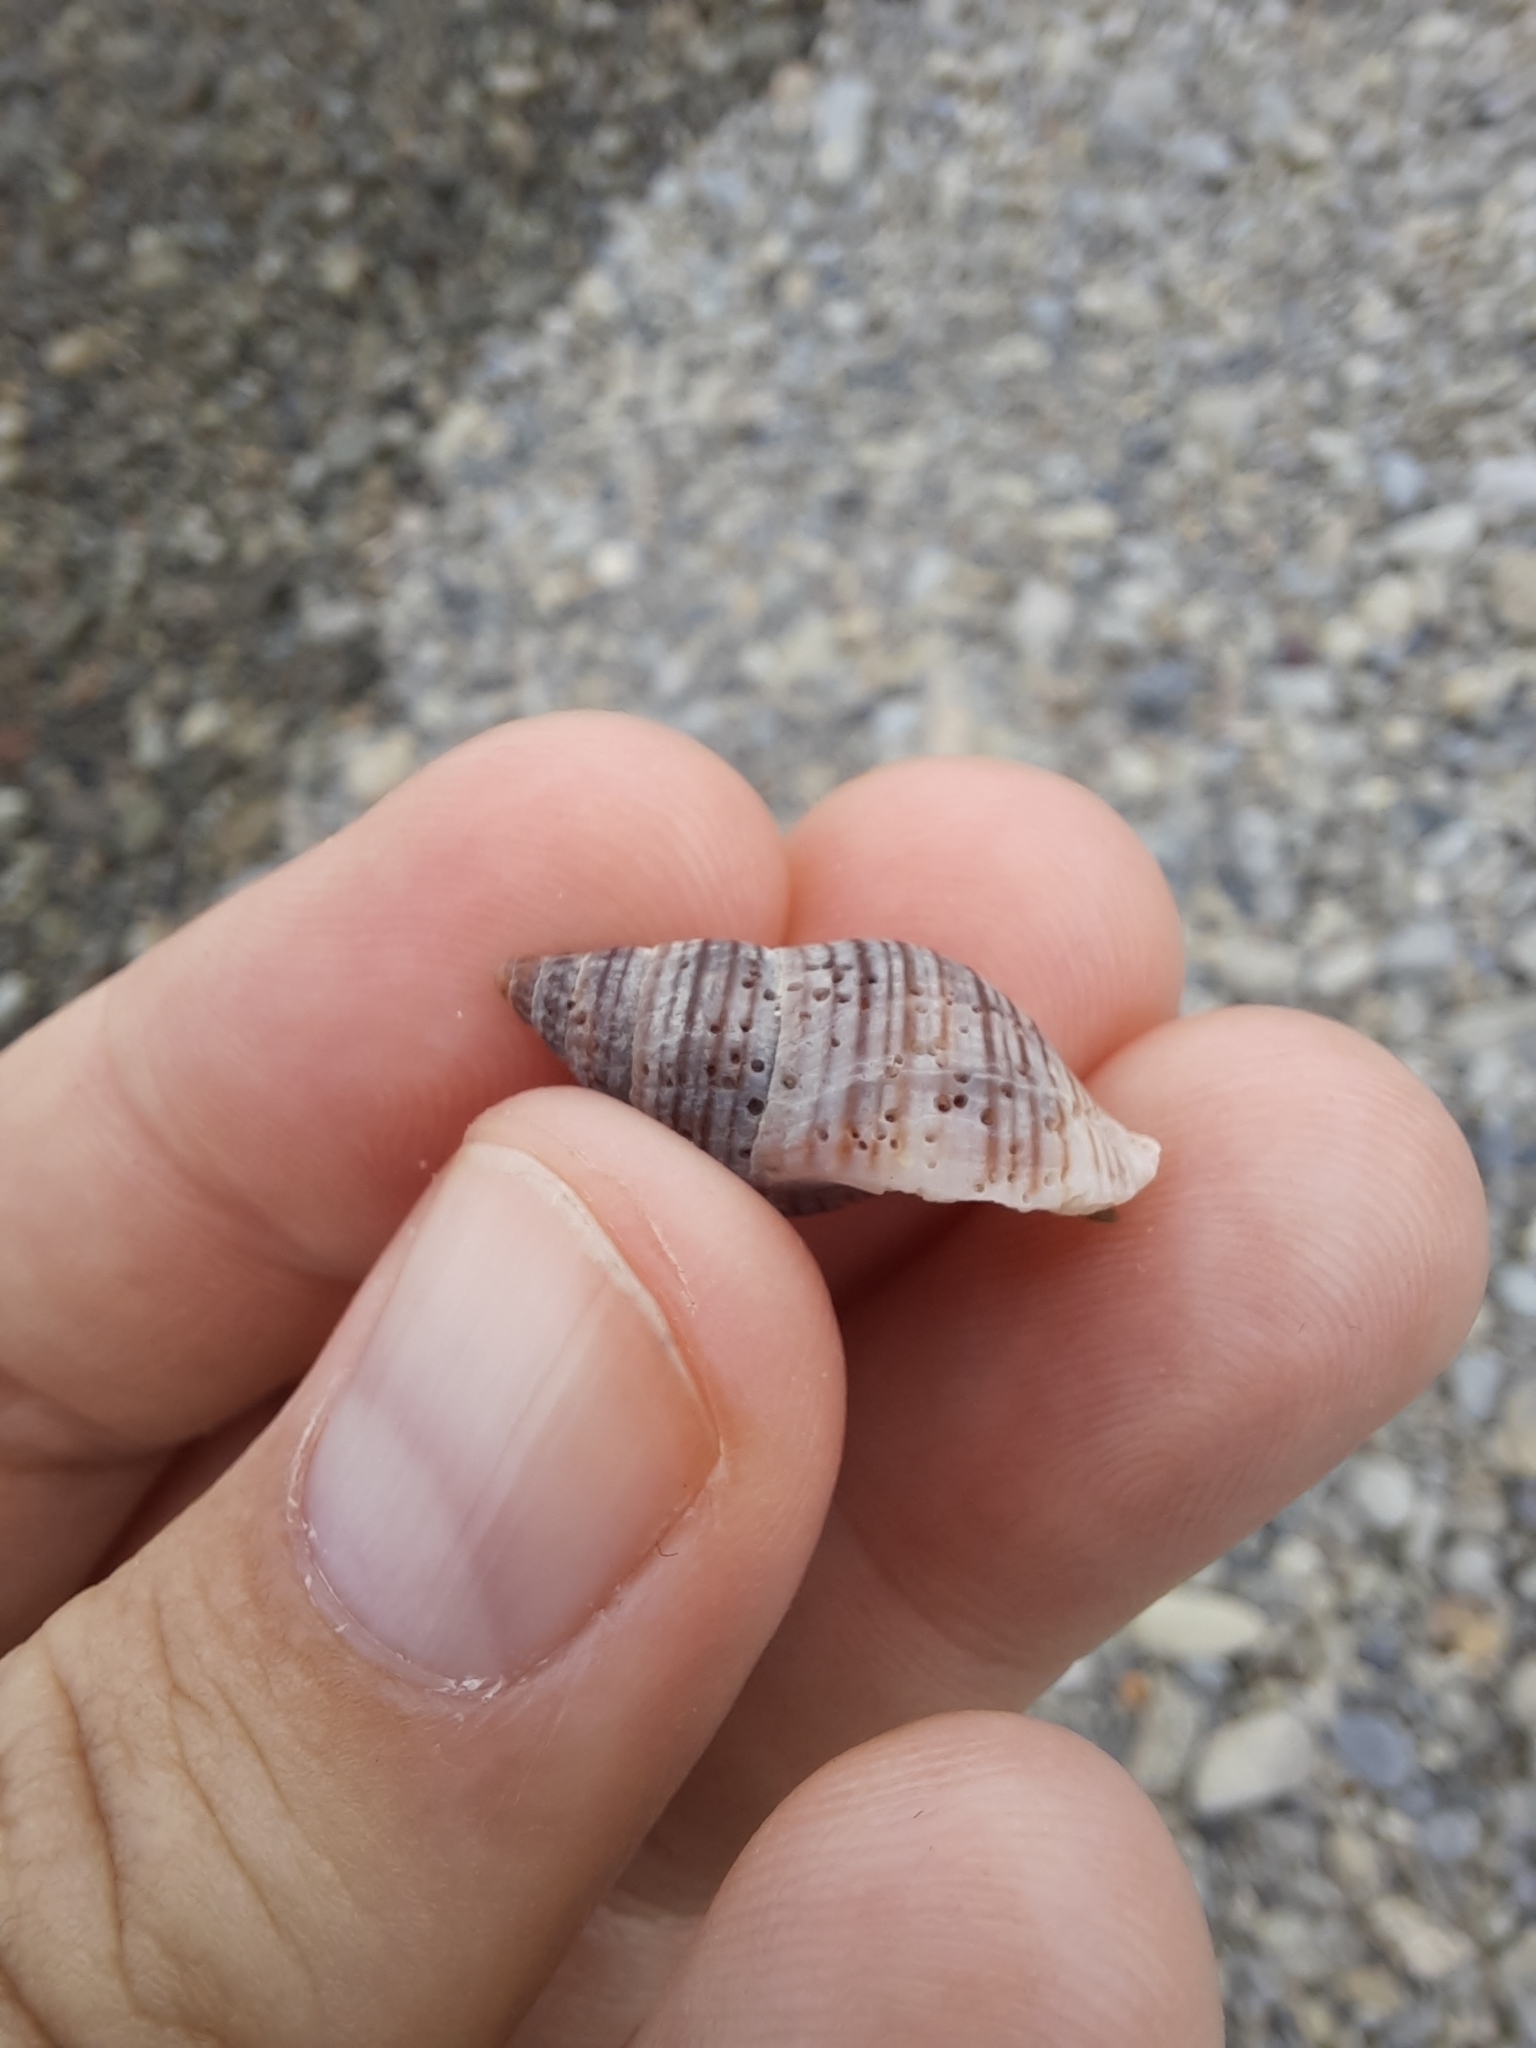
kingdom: Animalia
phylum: Mollusca
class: Gastropoda
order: Neogastropoda
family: Tudiclidae
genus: Buccinulum
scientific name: Buccinulum littorinoides
